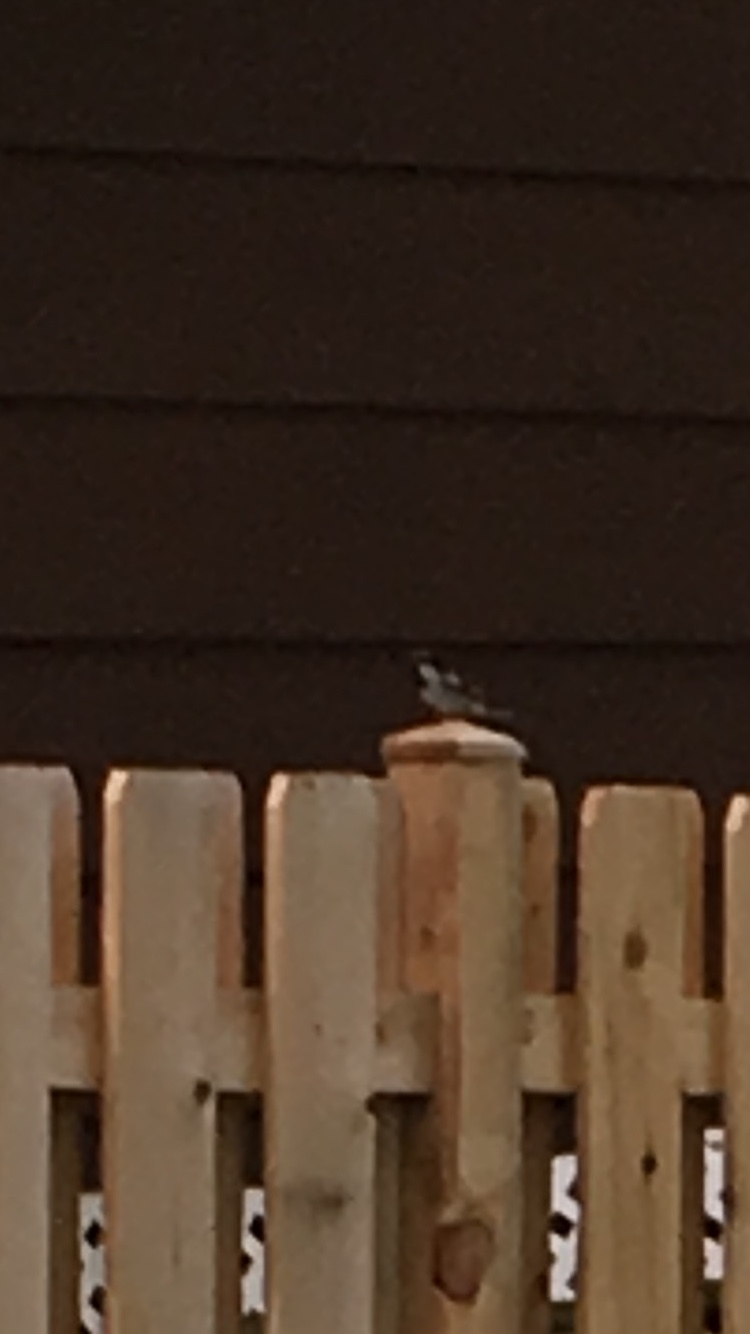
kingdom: Animalia
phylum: Chordata
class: Aves
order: Passeriformes
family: Passeridae
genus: Passer
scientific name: Passer domesticus
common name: House sparrow
